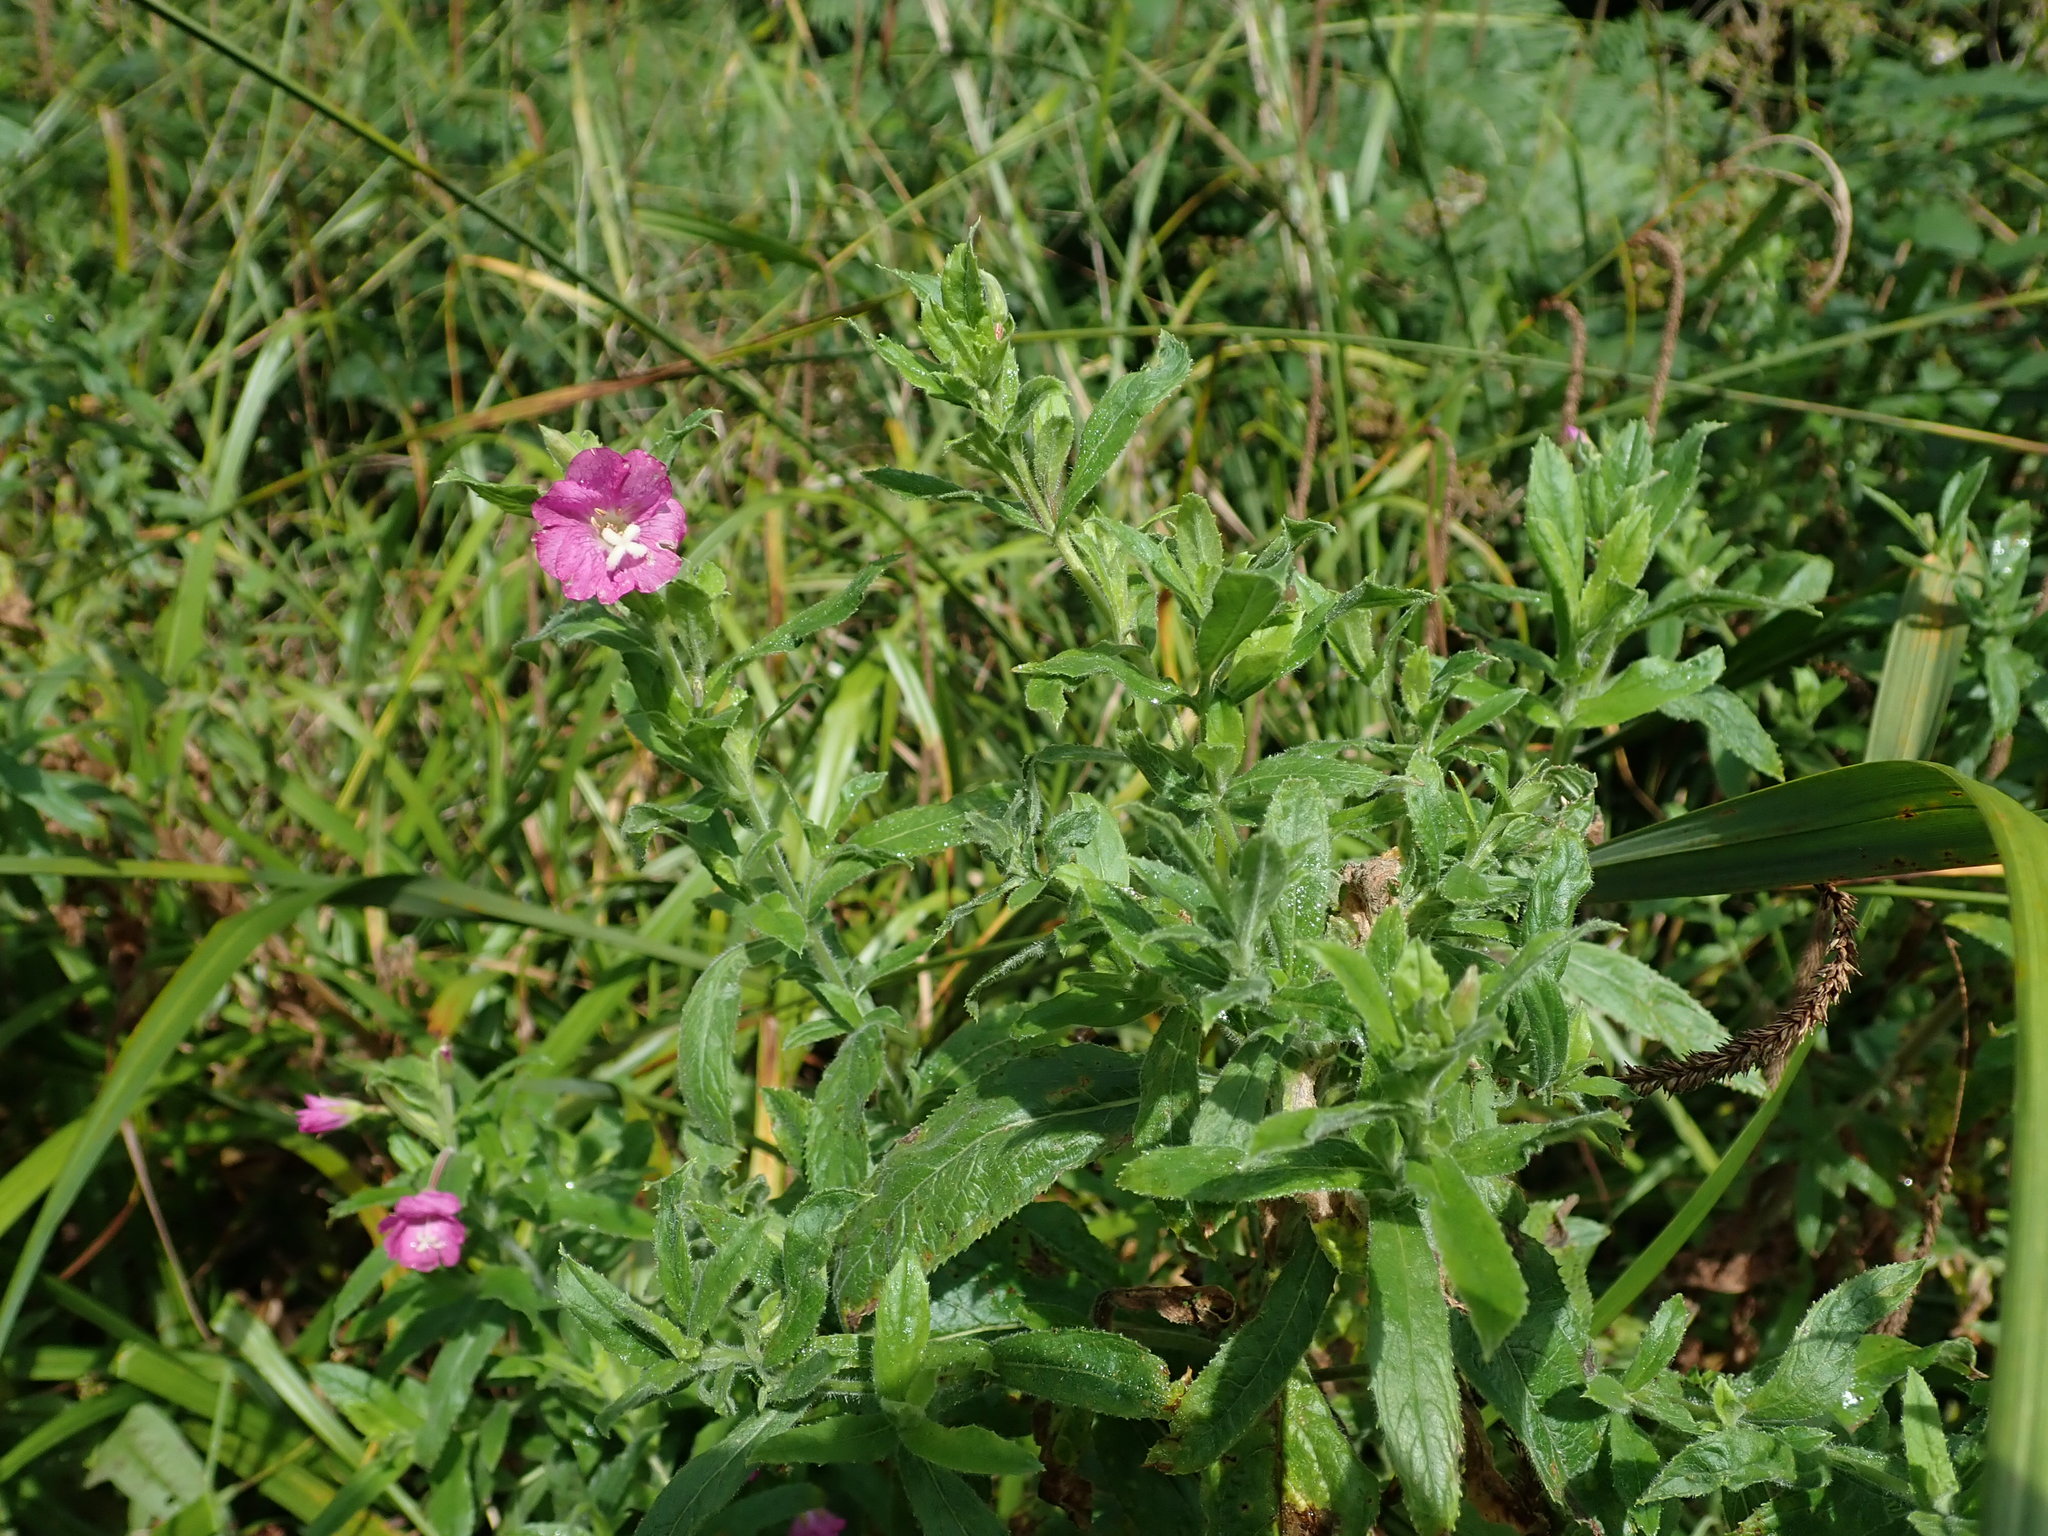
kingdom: Plantae
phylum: Tracheophyta
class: Magnoliopsida
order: Myrtales
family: Onagraceae
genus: Epilobium
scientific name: Epilobium hirsutum
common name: Great willowherb
